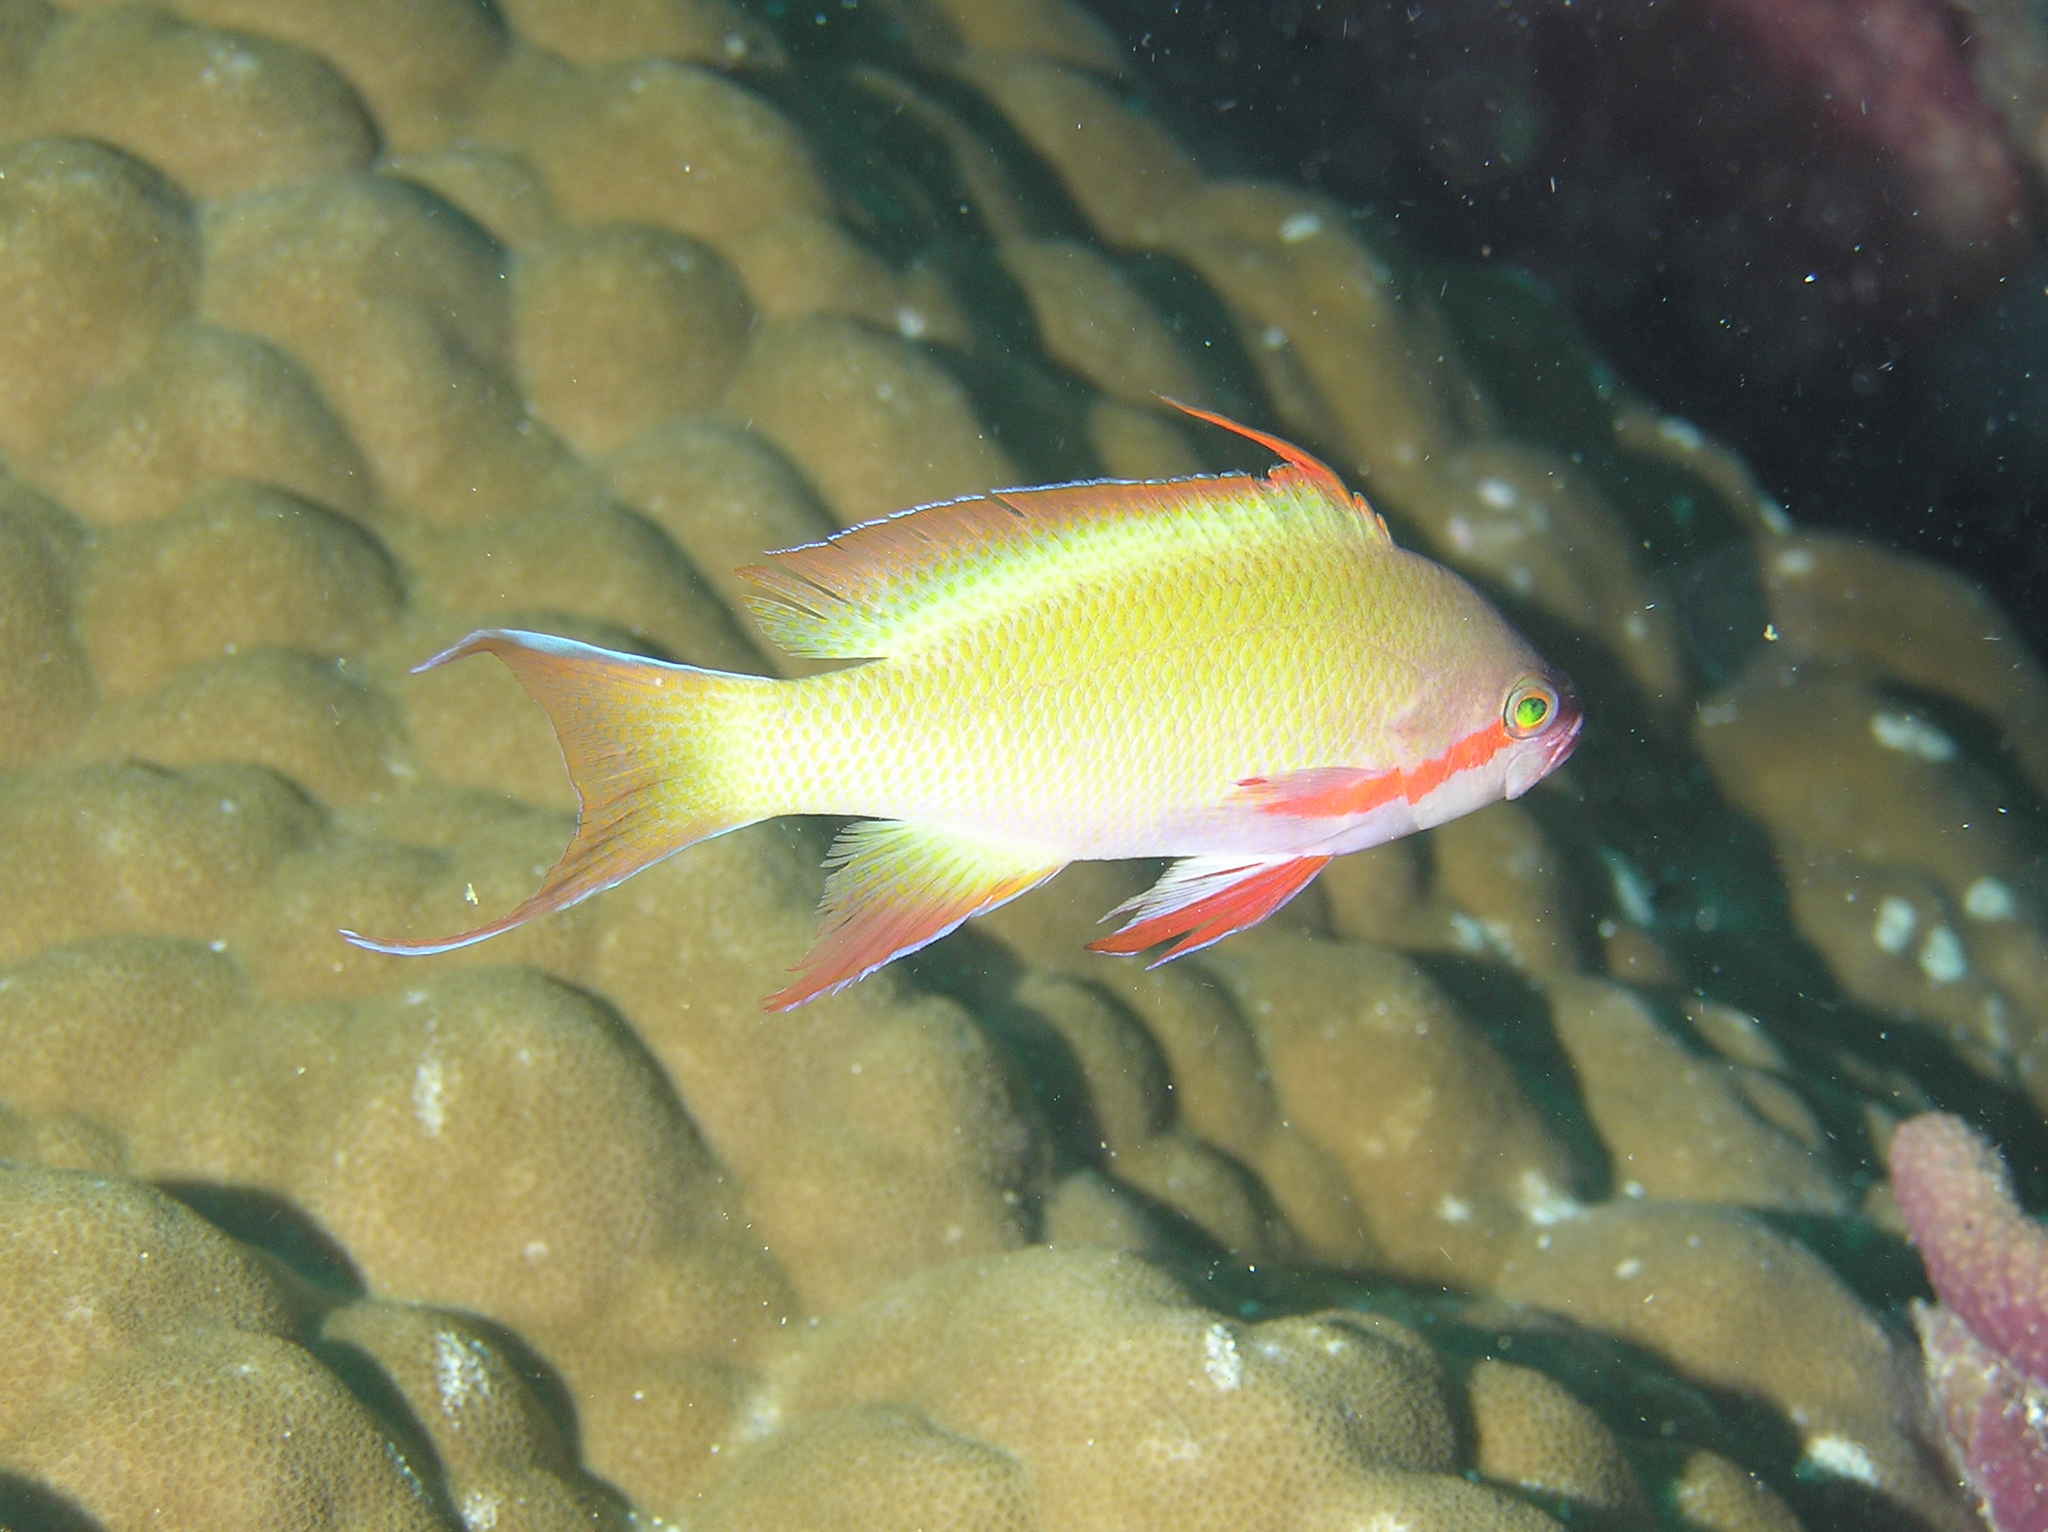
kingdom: Animalia
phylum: Chordata
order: Perciformes
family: Serranidae
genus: Pseudanthias
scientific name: Pseudanthias huchtii
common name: Pacific basslet
